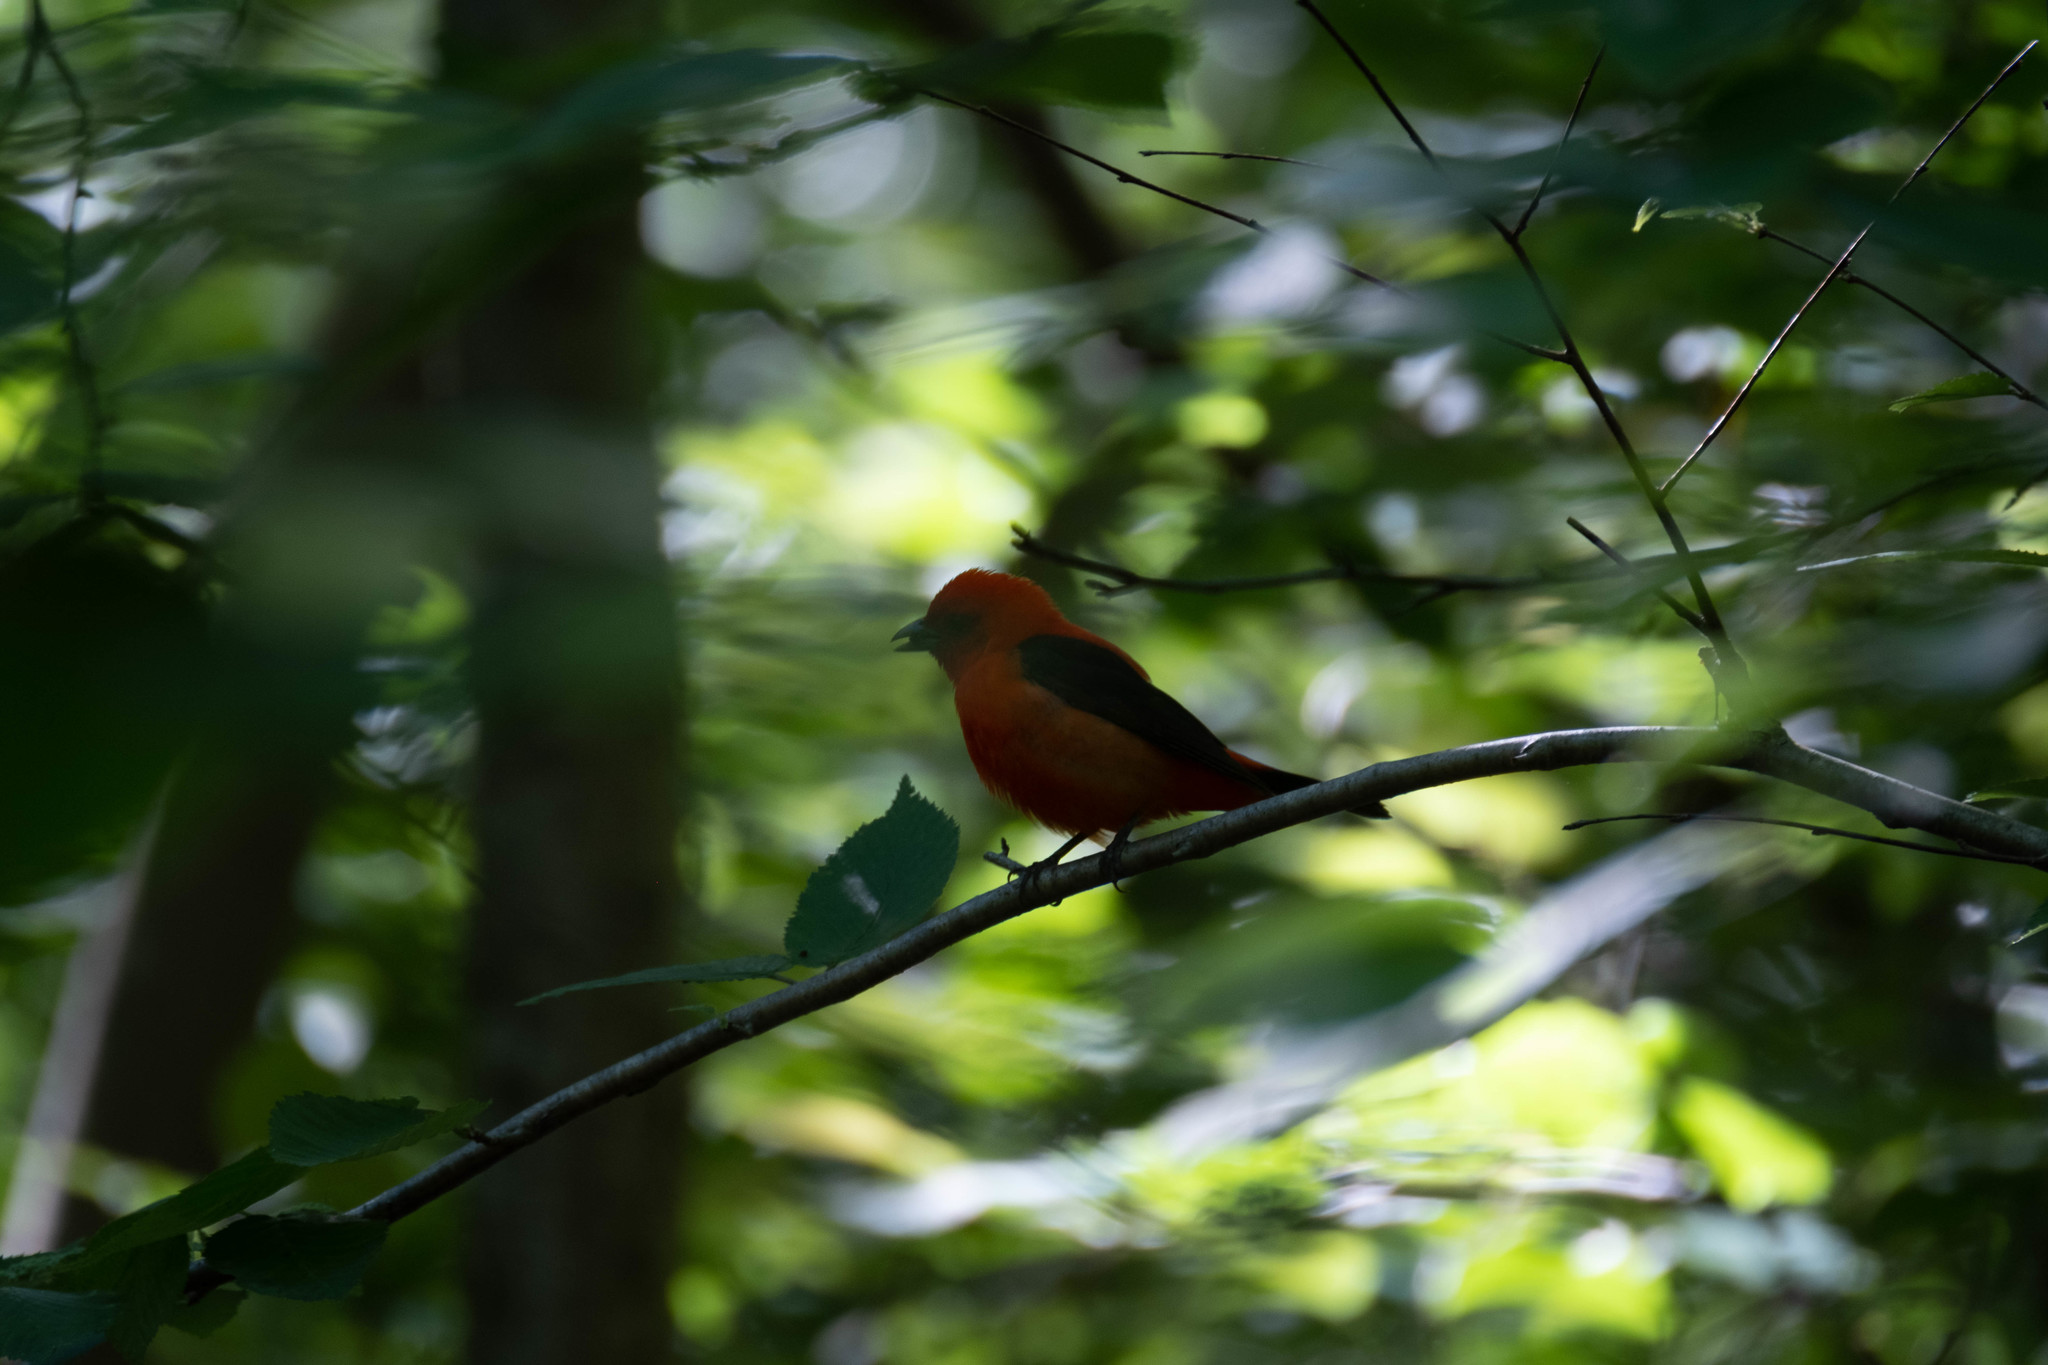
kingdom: Animalia
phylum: Chordata
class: Aves
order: Passeriformes
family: Cardinalidae
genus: Piranga
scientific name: Piranga olivacea
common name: Scarlet tanager
